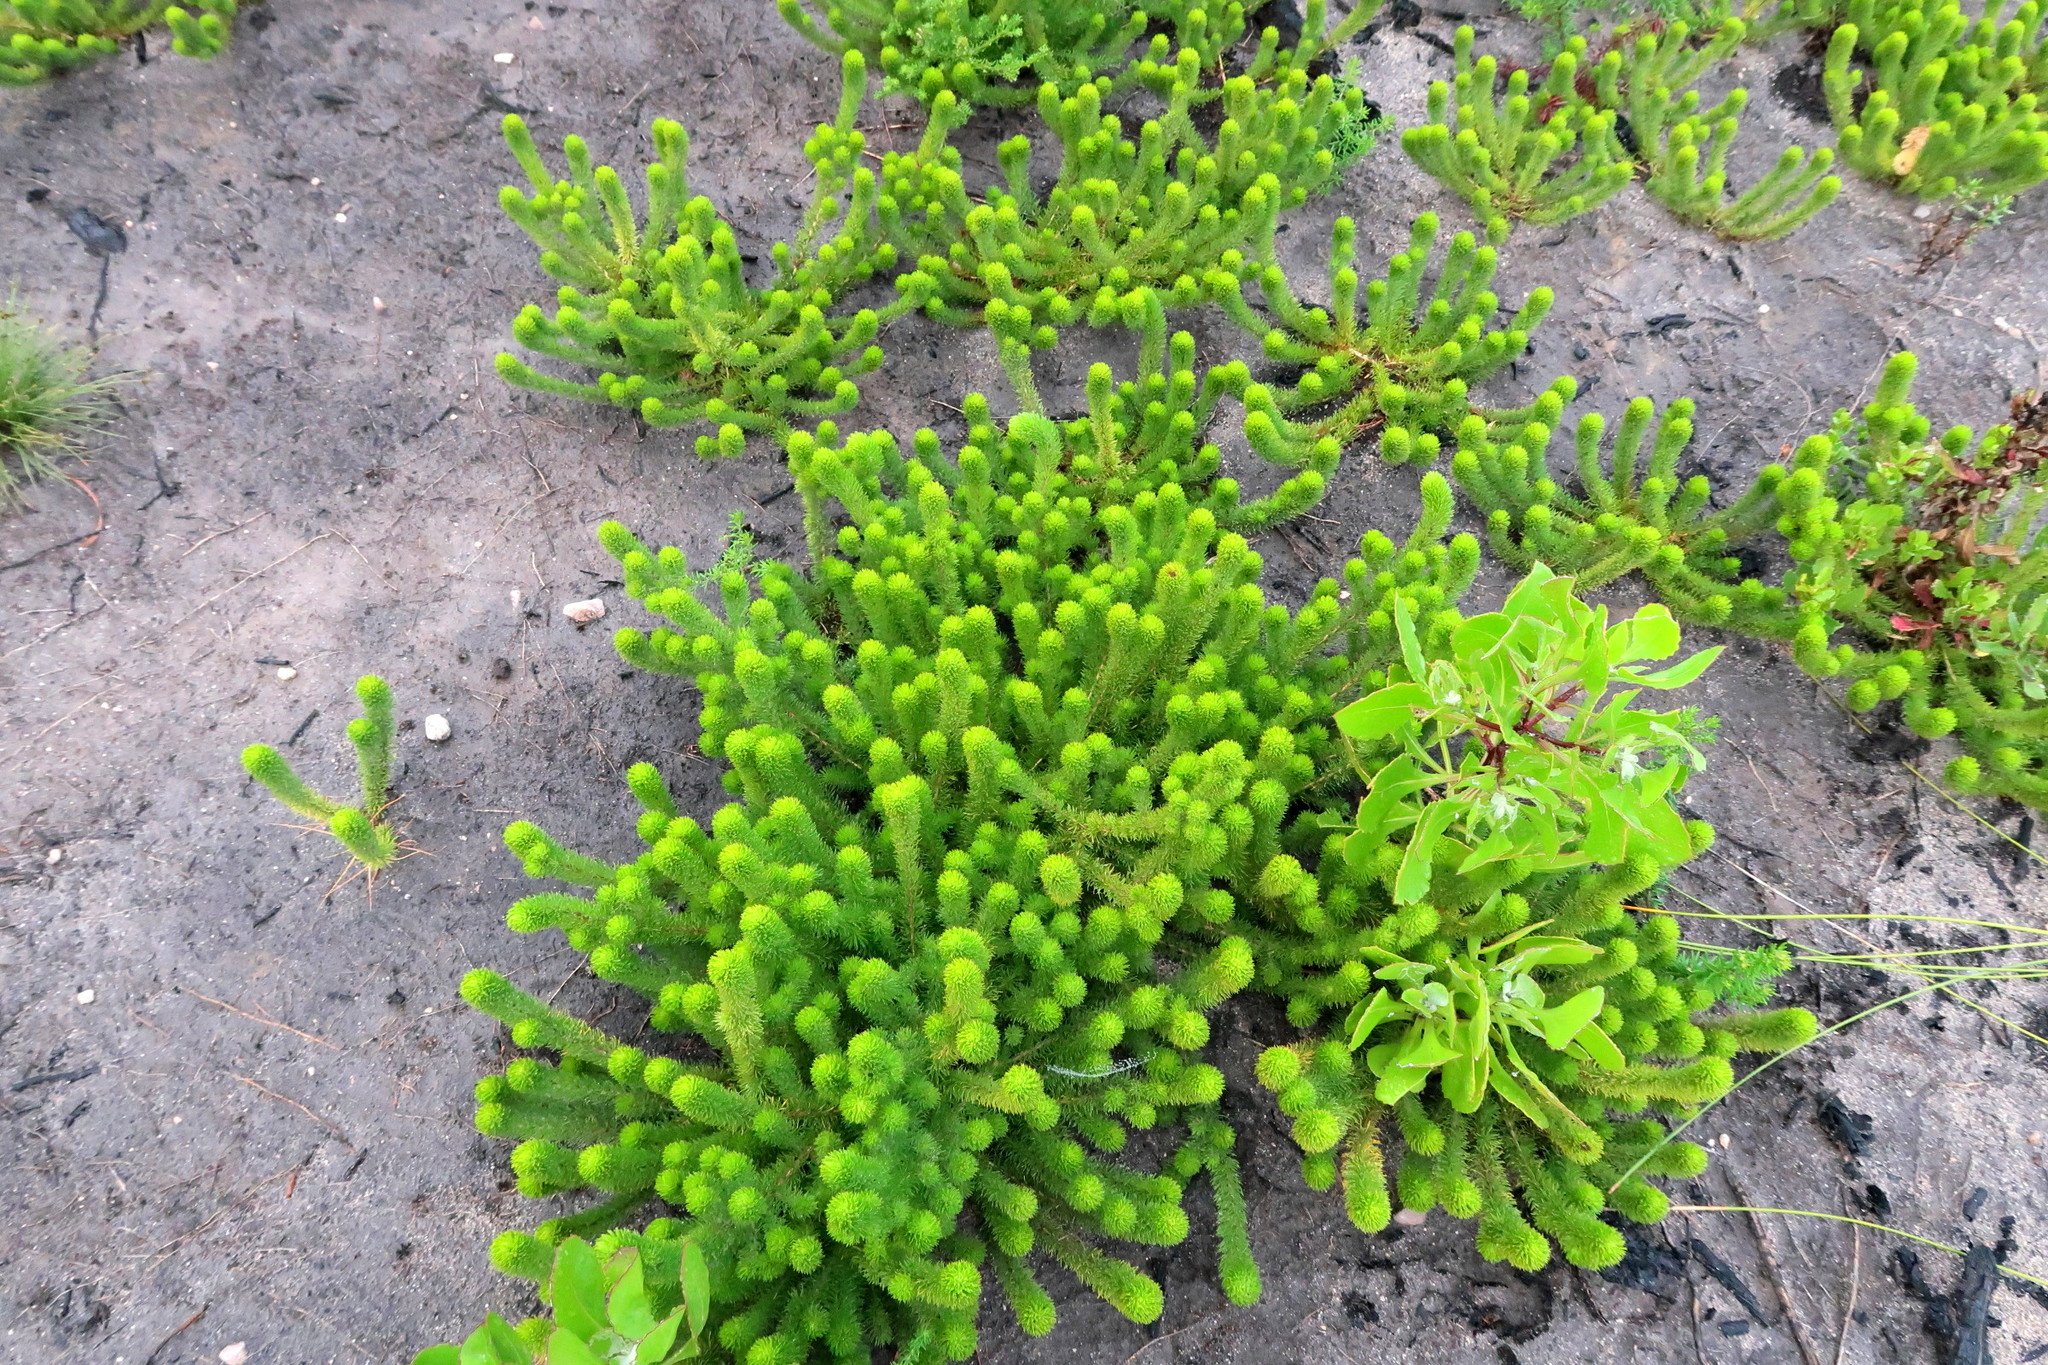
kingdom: Plantae
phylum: Tracheophyta
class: Magnoliopsida
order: Fabales
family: Fabaceae
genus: Aspalathus
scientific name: Aspalathus alopecurus
